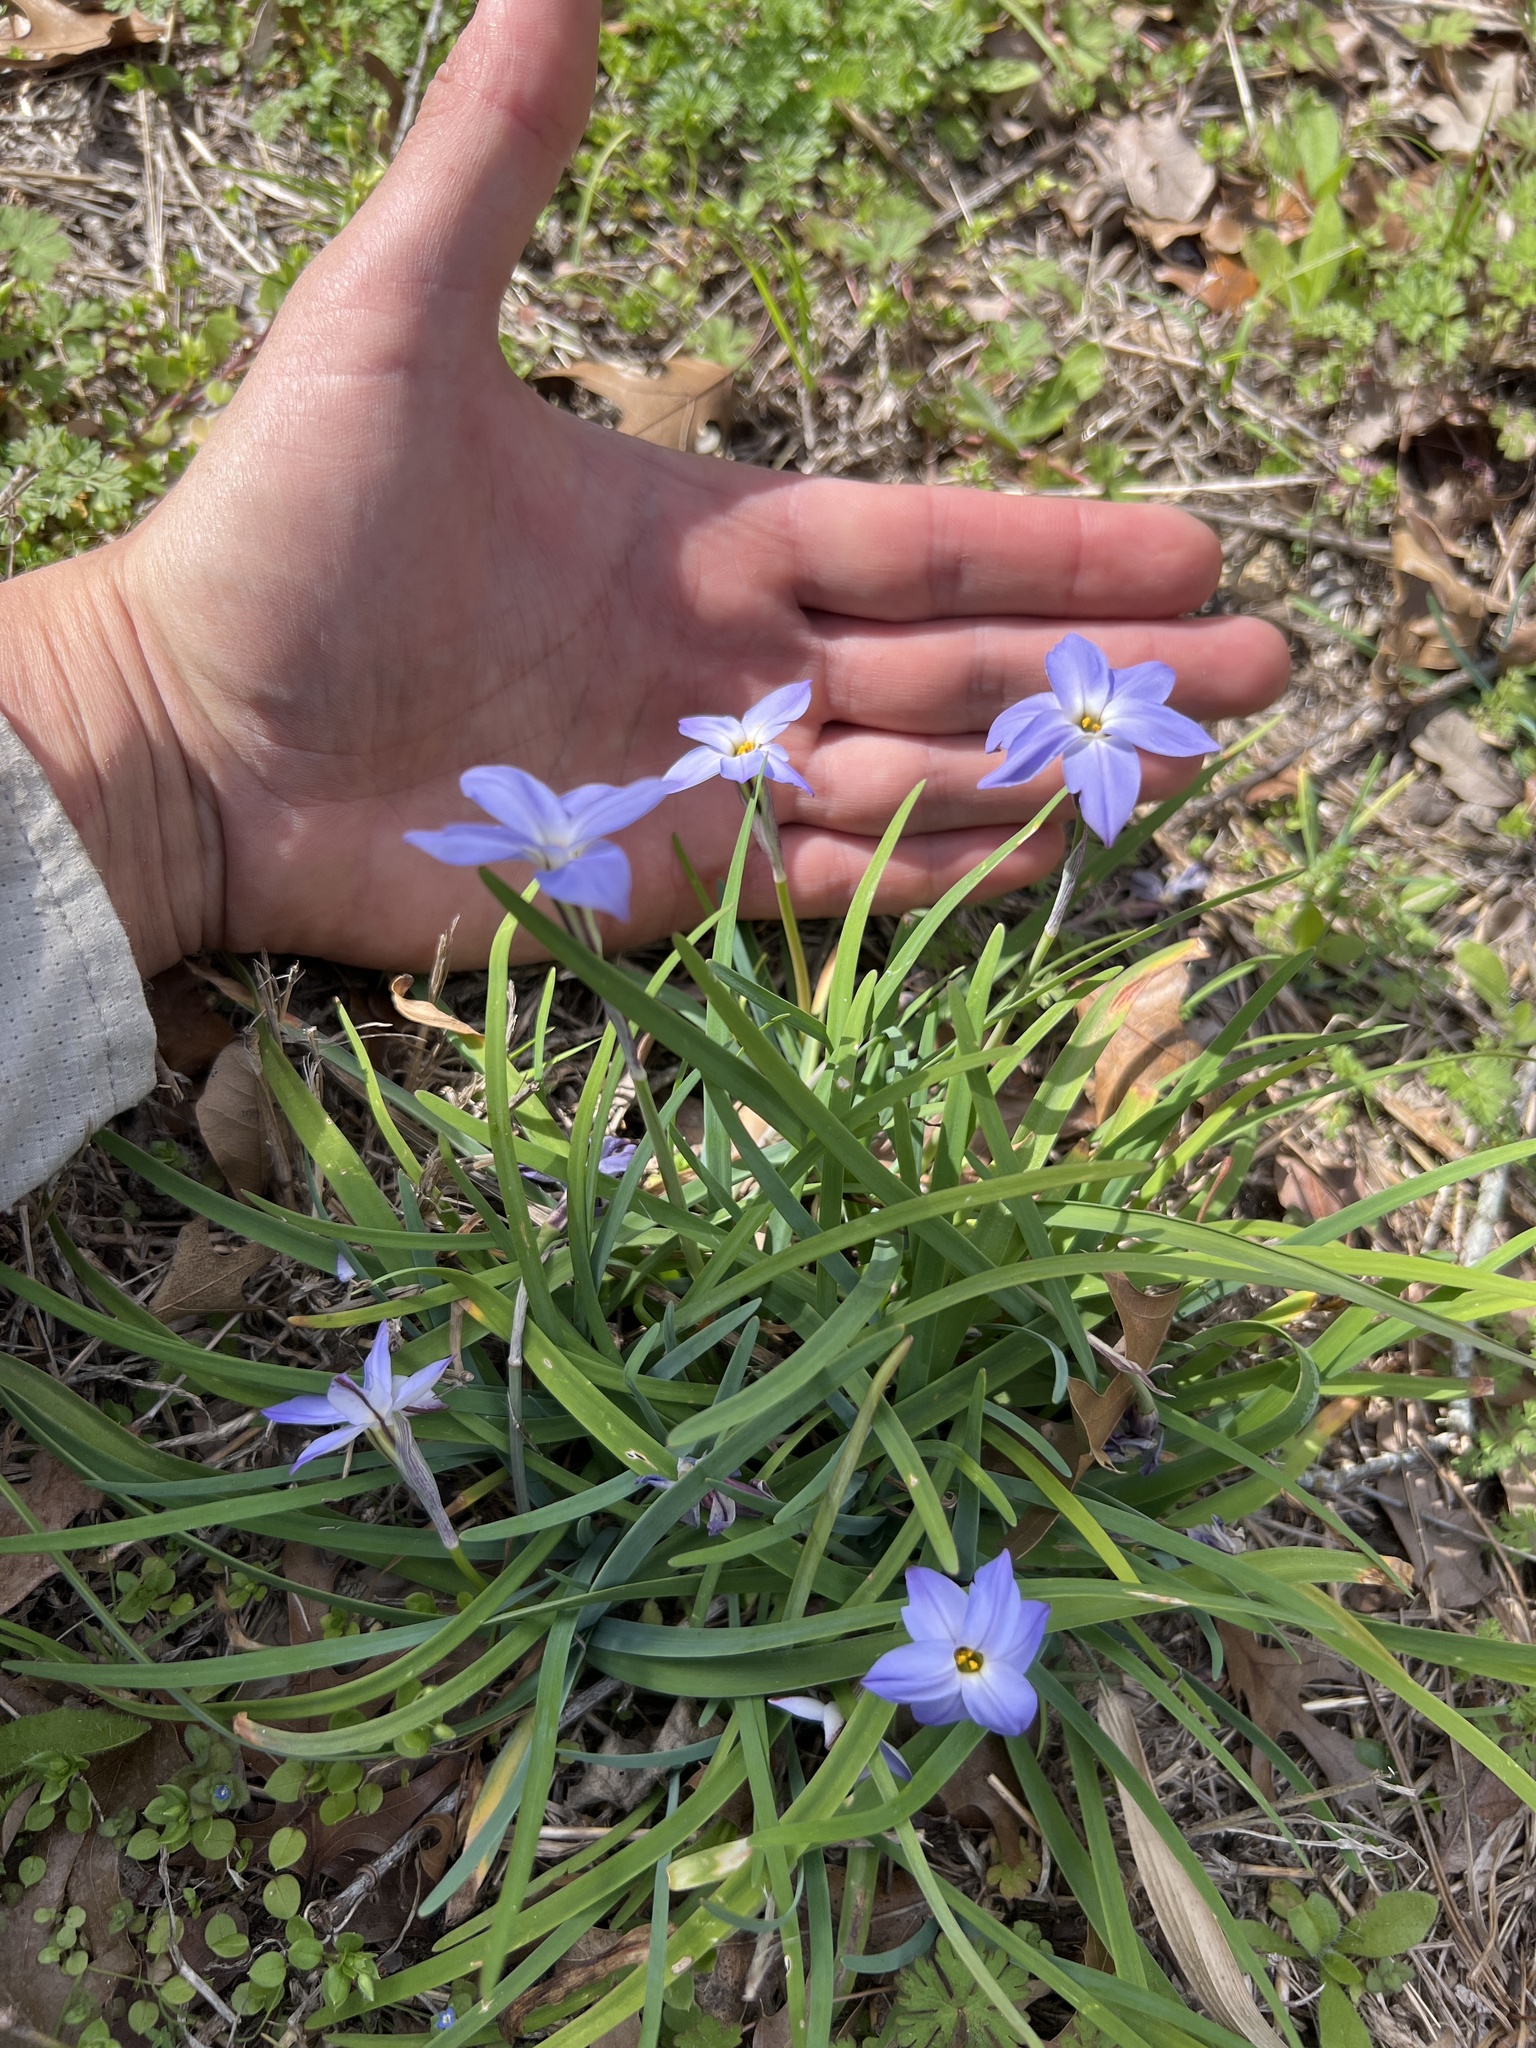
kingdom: Plantae
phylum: Tracheophyta
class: Liliopsida
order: Asparagales
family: Amaryllidaceae
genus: Ipheion
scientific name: Ipheion uniflorum
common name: Spring starflower
